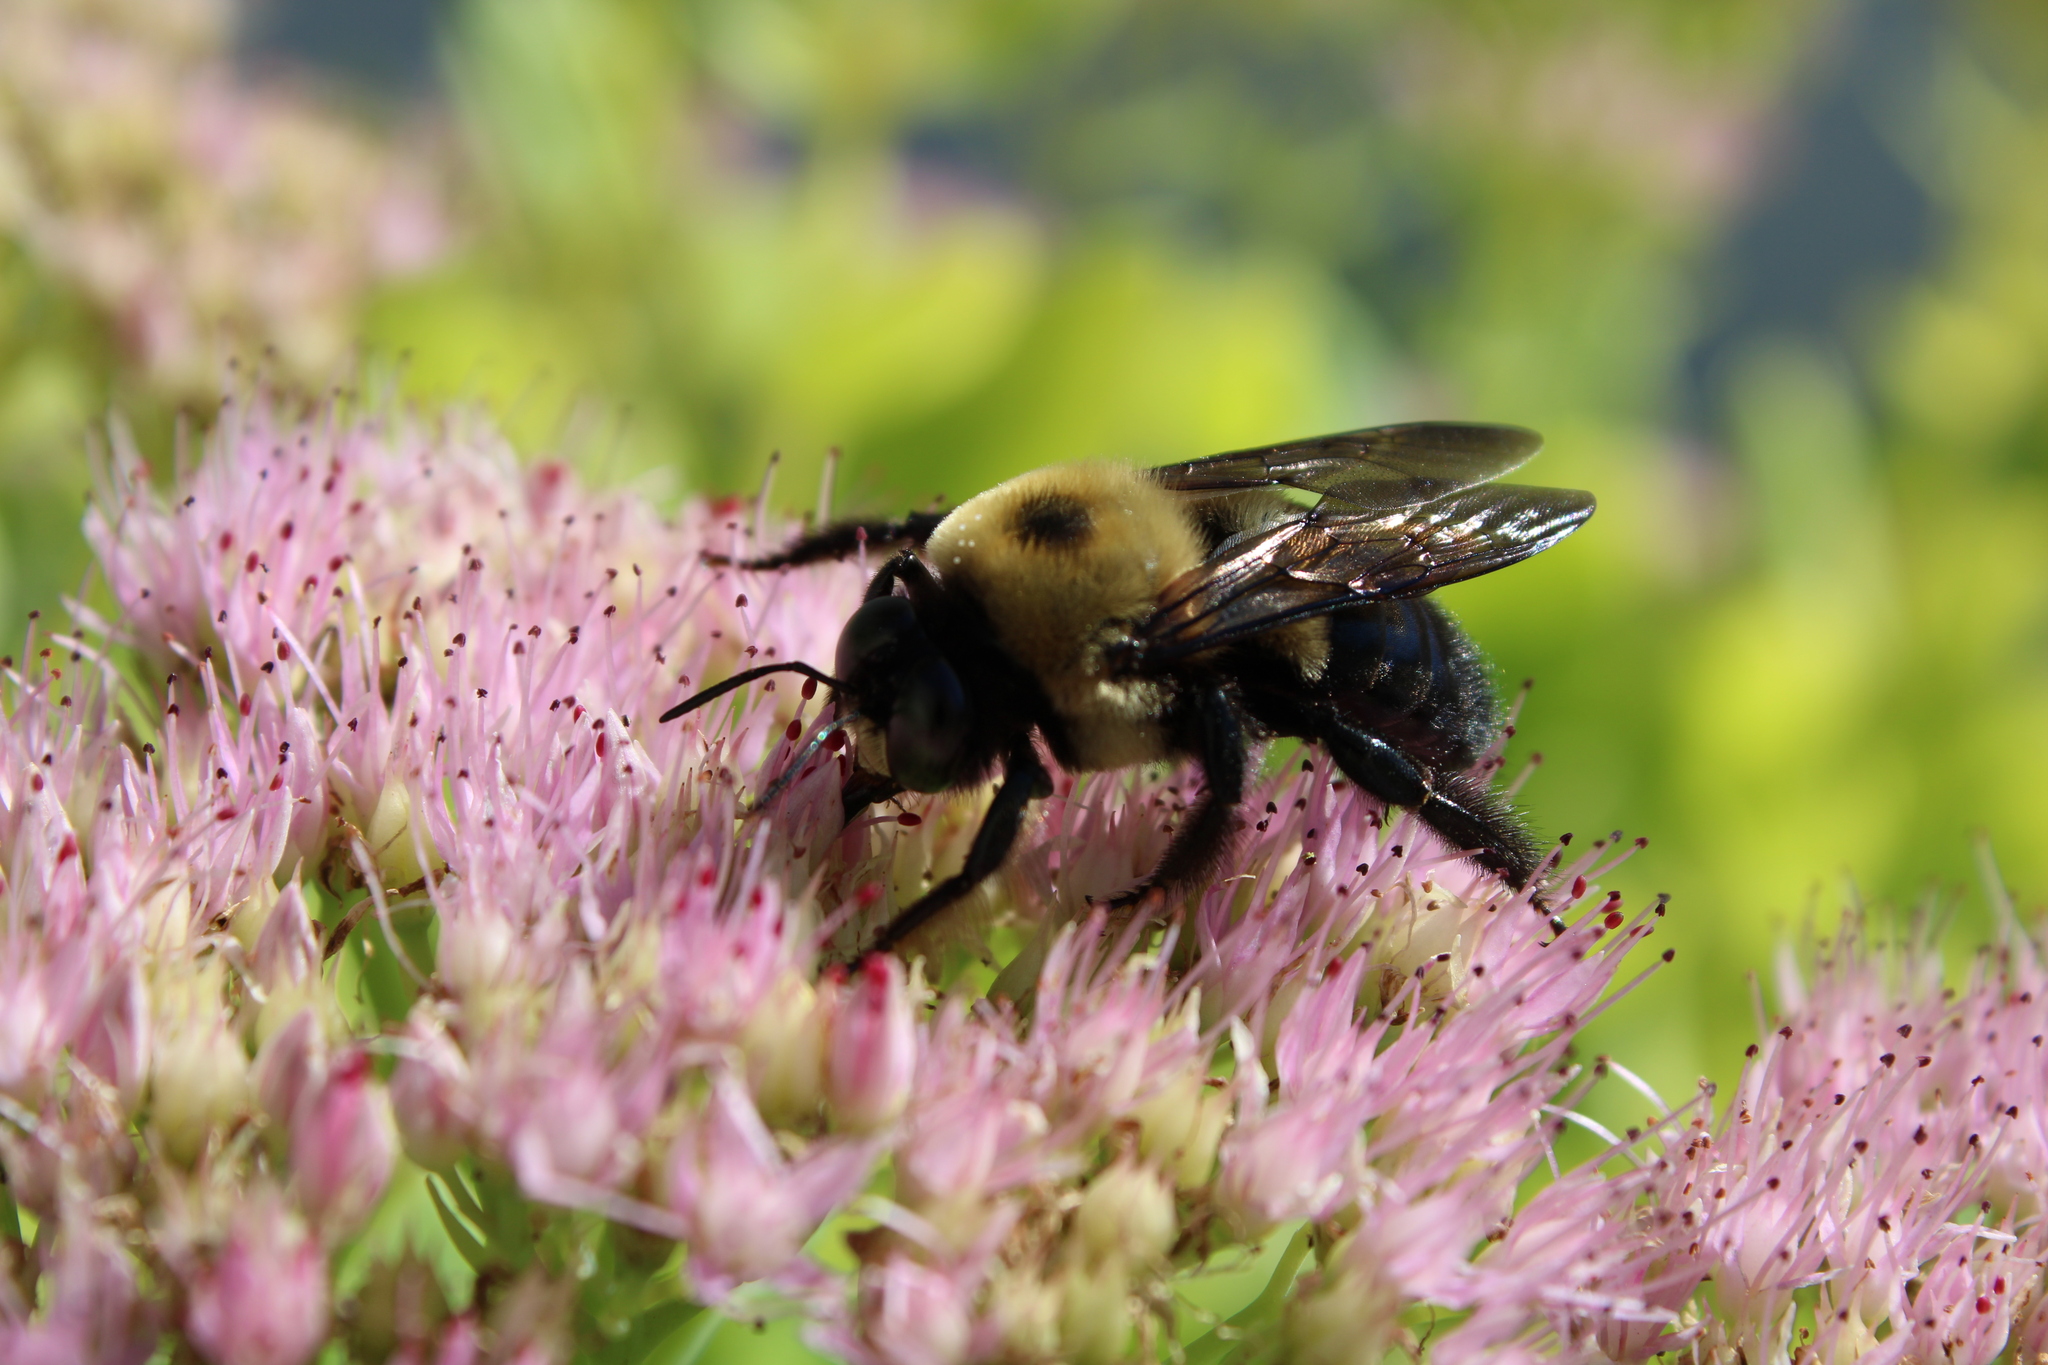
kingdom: Animalia
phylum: Arthropoda
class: Insecta
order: Hymenoptera
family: Apidae
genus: Xylocopa
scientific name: Xylocopa virginica
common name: Carpenter bee
